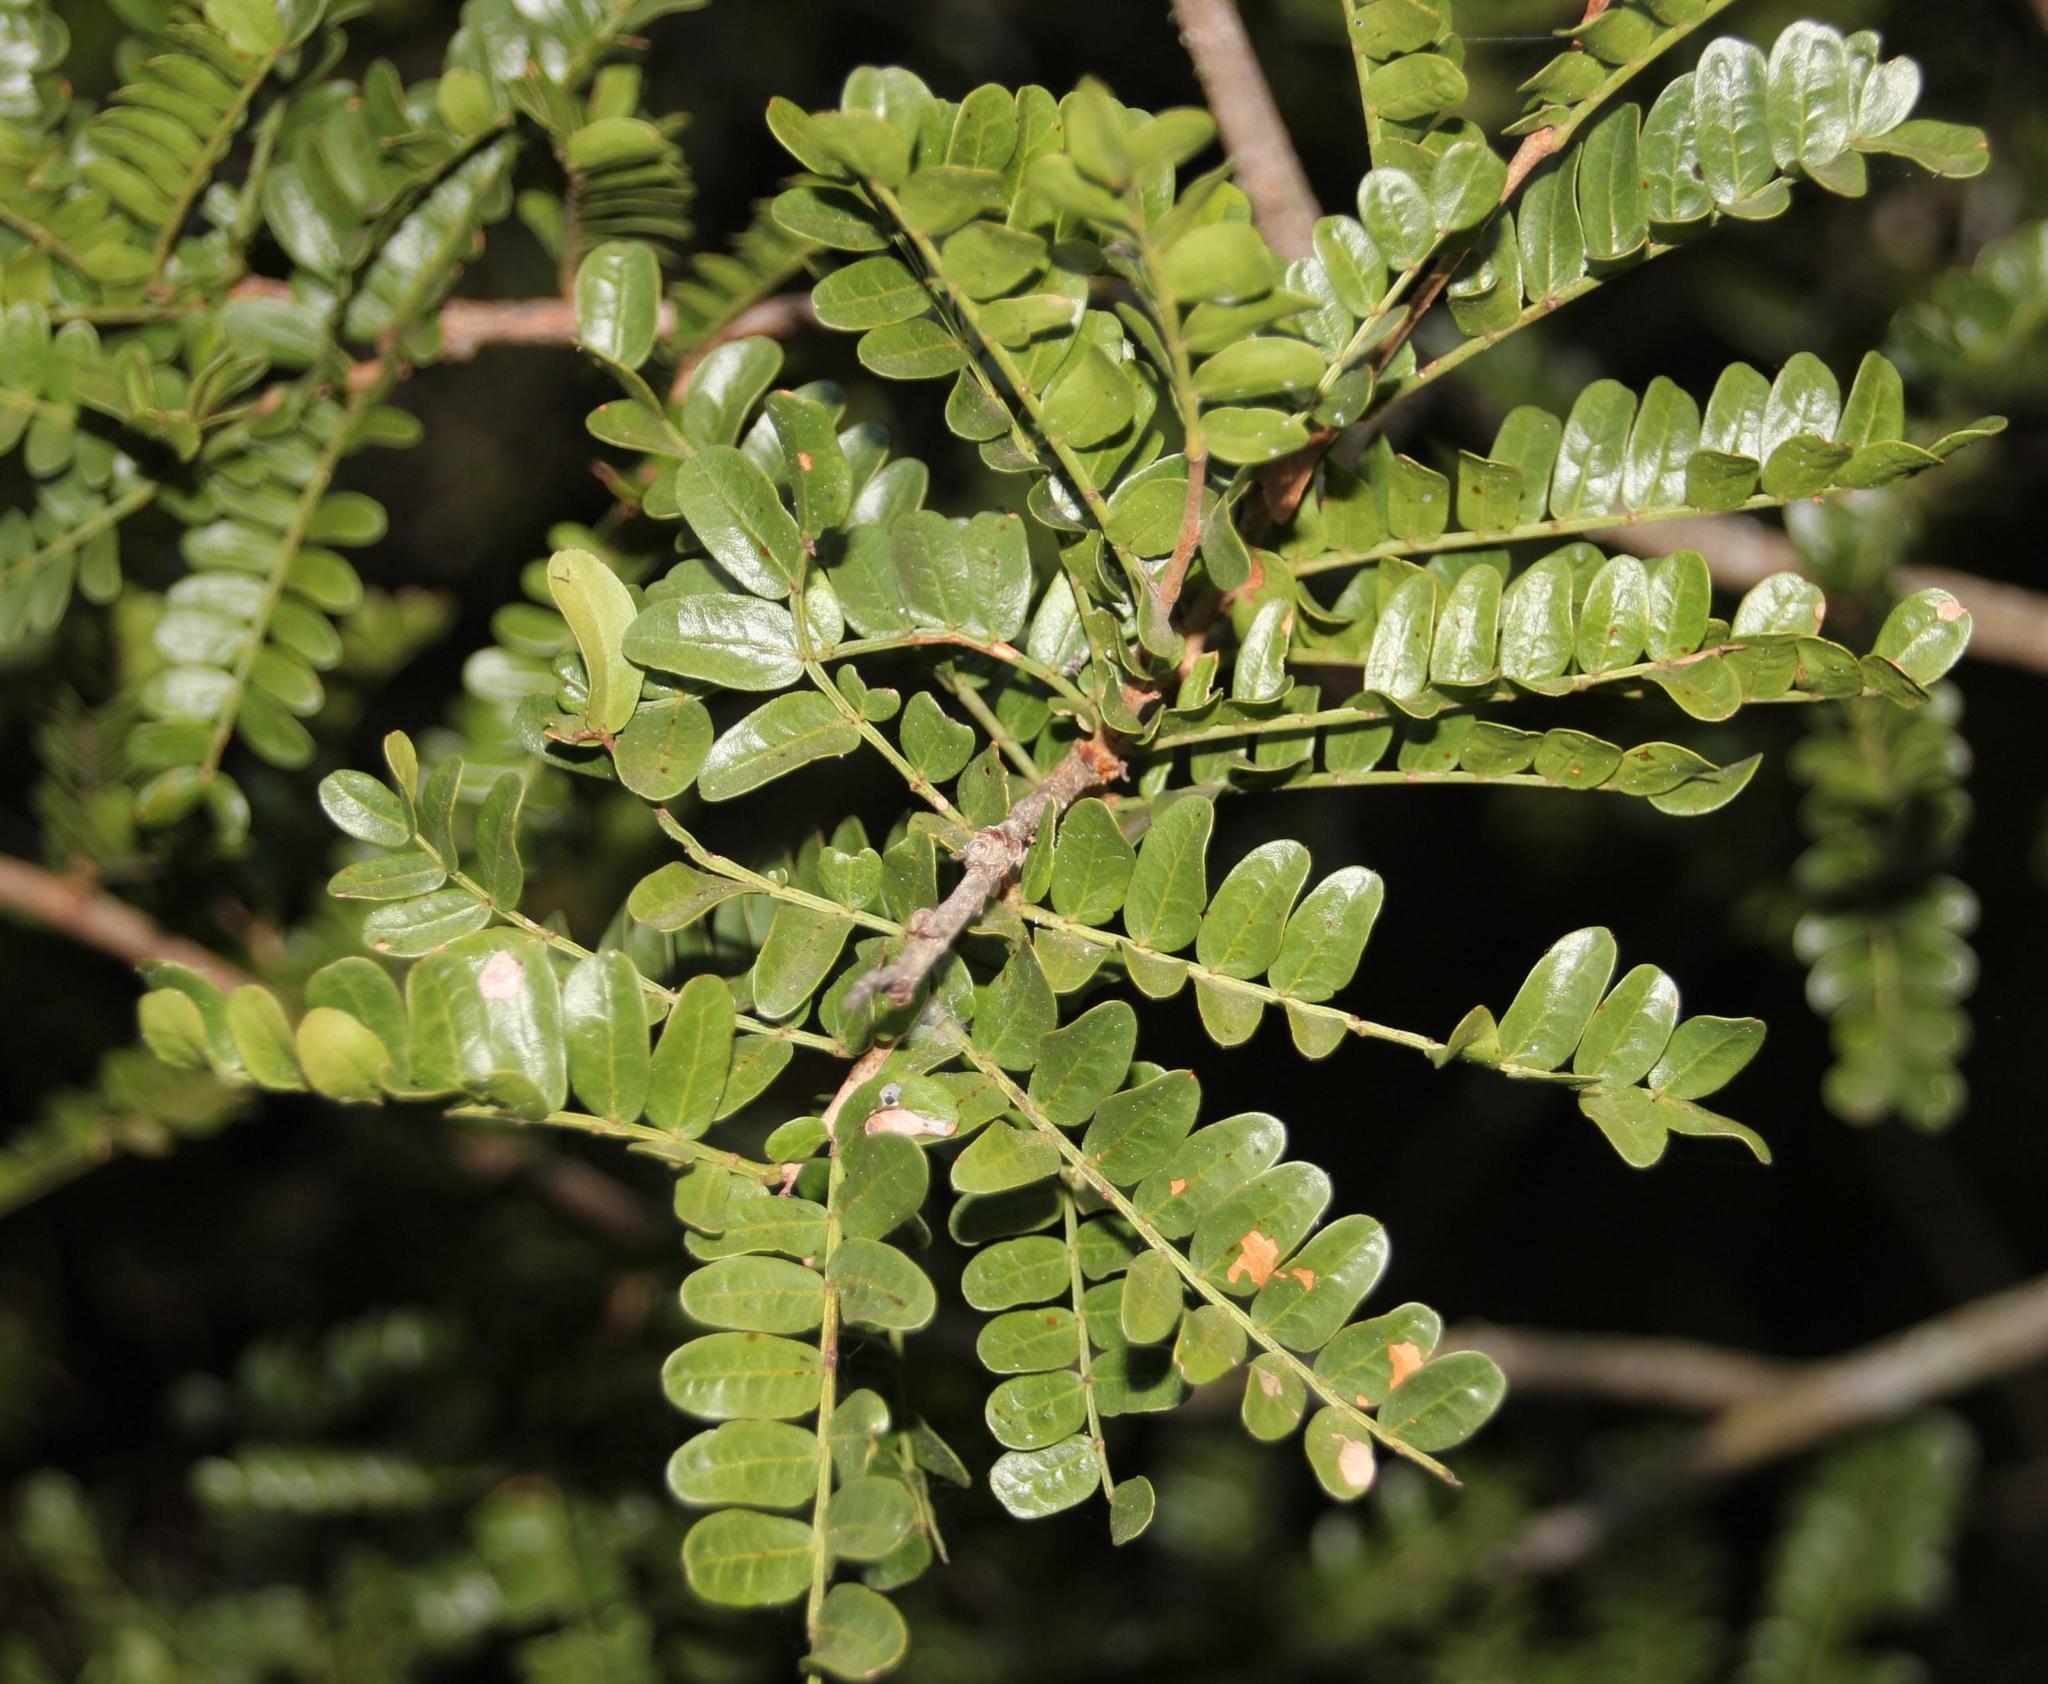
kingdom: Plantae
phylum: Tracheophyta
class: Magnoliopsida
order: Fabales
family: Fabaceae
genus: Schotia
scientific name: Schotia afra
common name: Hottentot's bean
